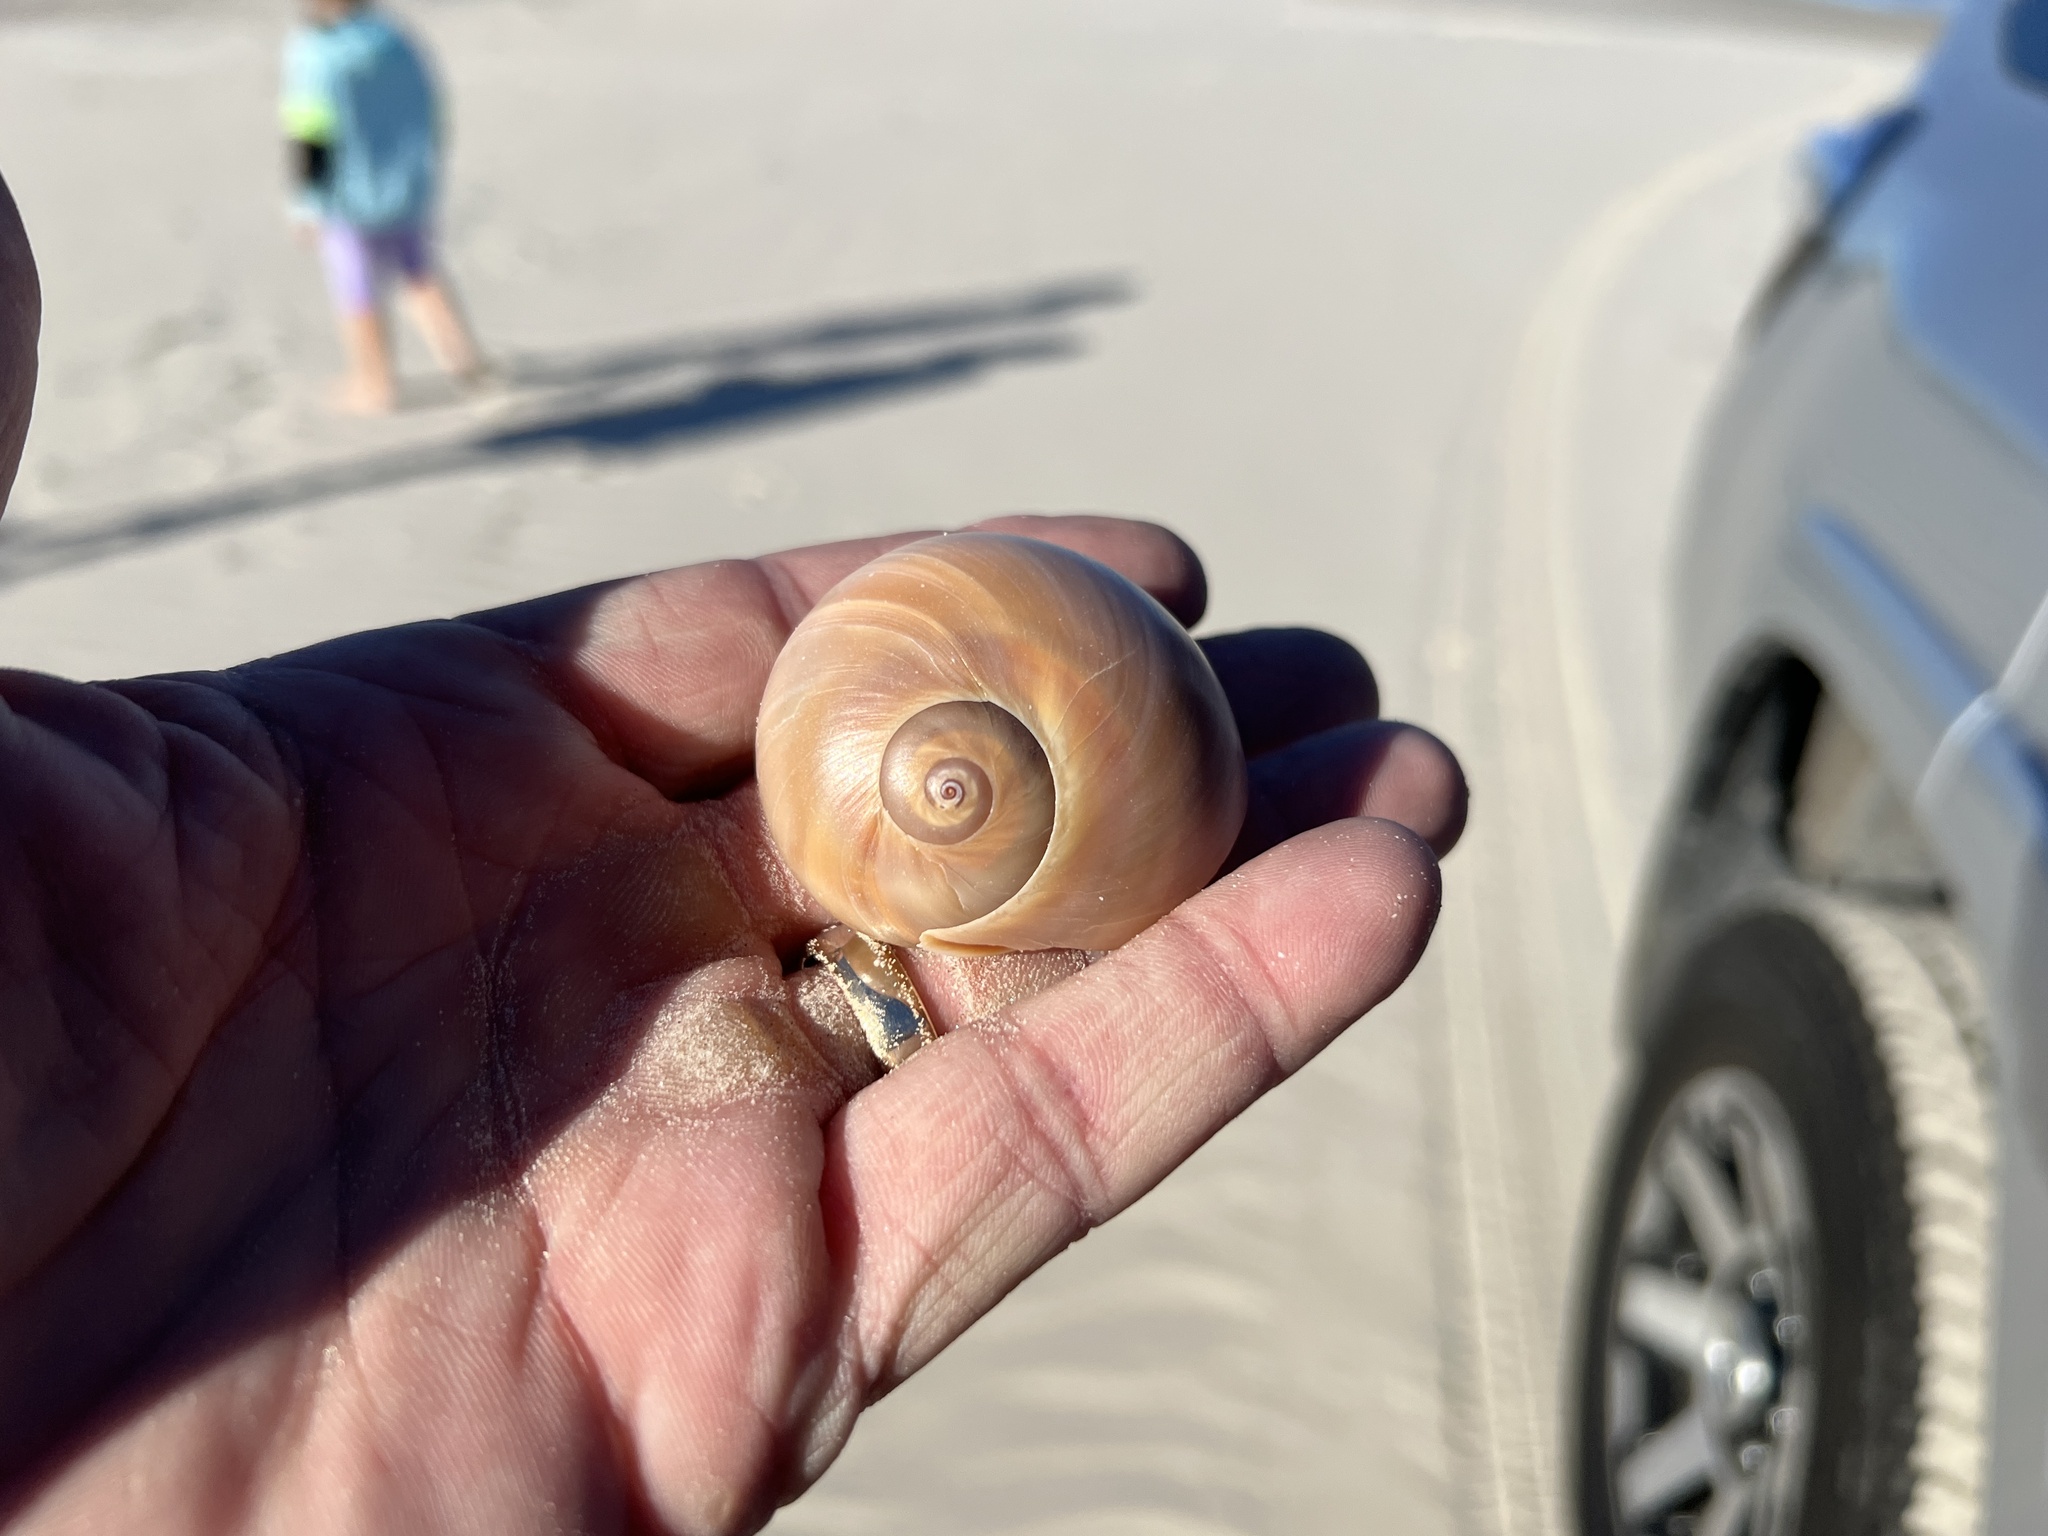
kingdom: Animalia
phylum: Mollusca
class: Gastropoda
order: Littorinimorpha
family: Naticidae
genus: Neverita
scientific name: Neverita delessertiana
